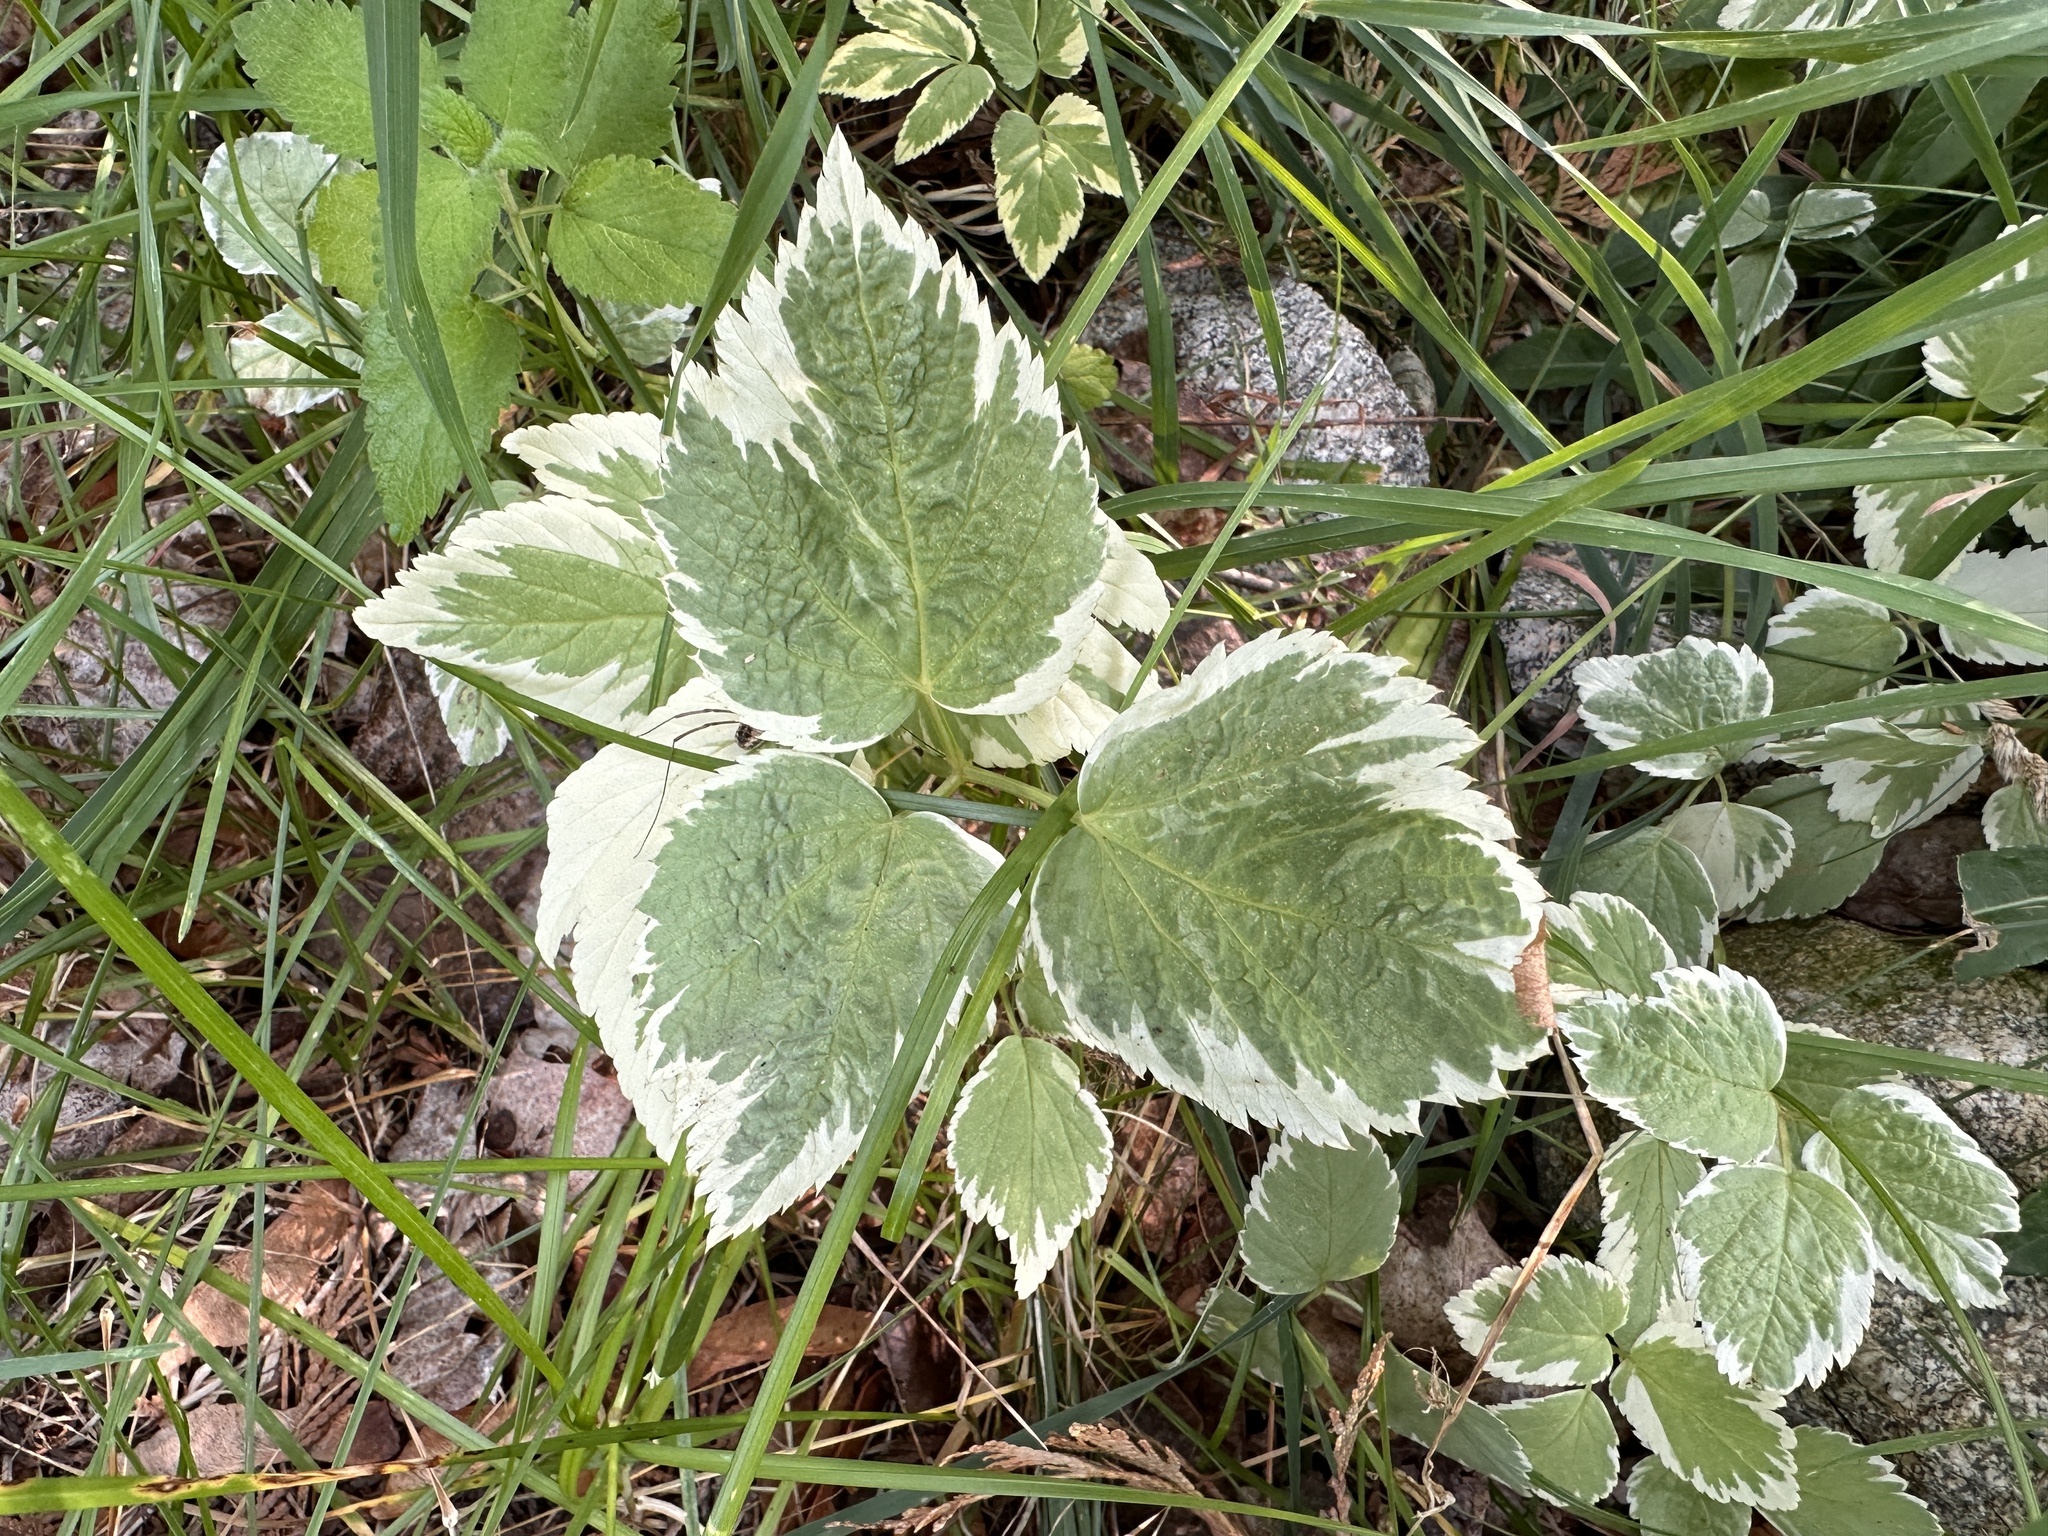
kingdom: Plantae
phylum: Tracheophyta
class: Magnoliopsida
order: Apiales
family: Apiaceae
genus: Aegopodium
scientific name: Aegopodium podagraria
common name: Ground-elder
